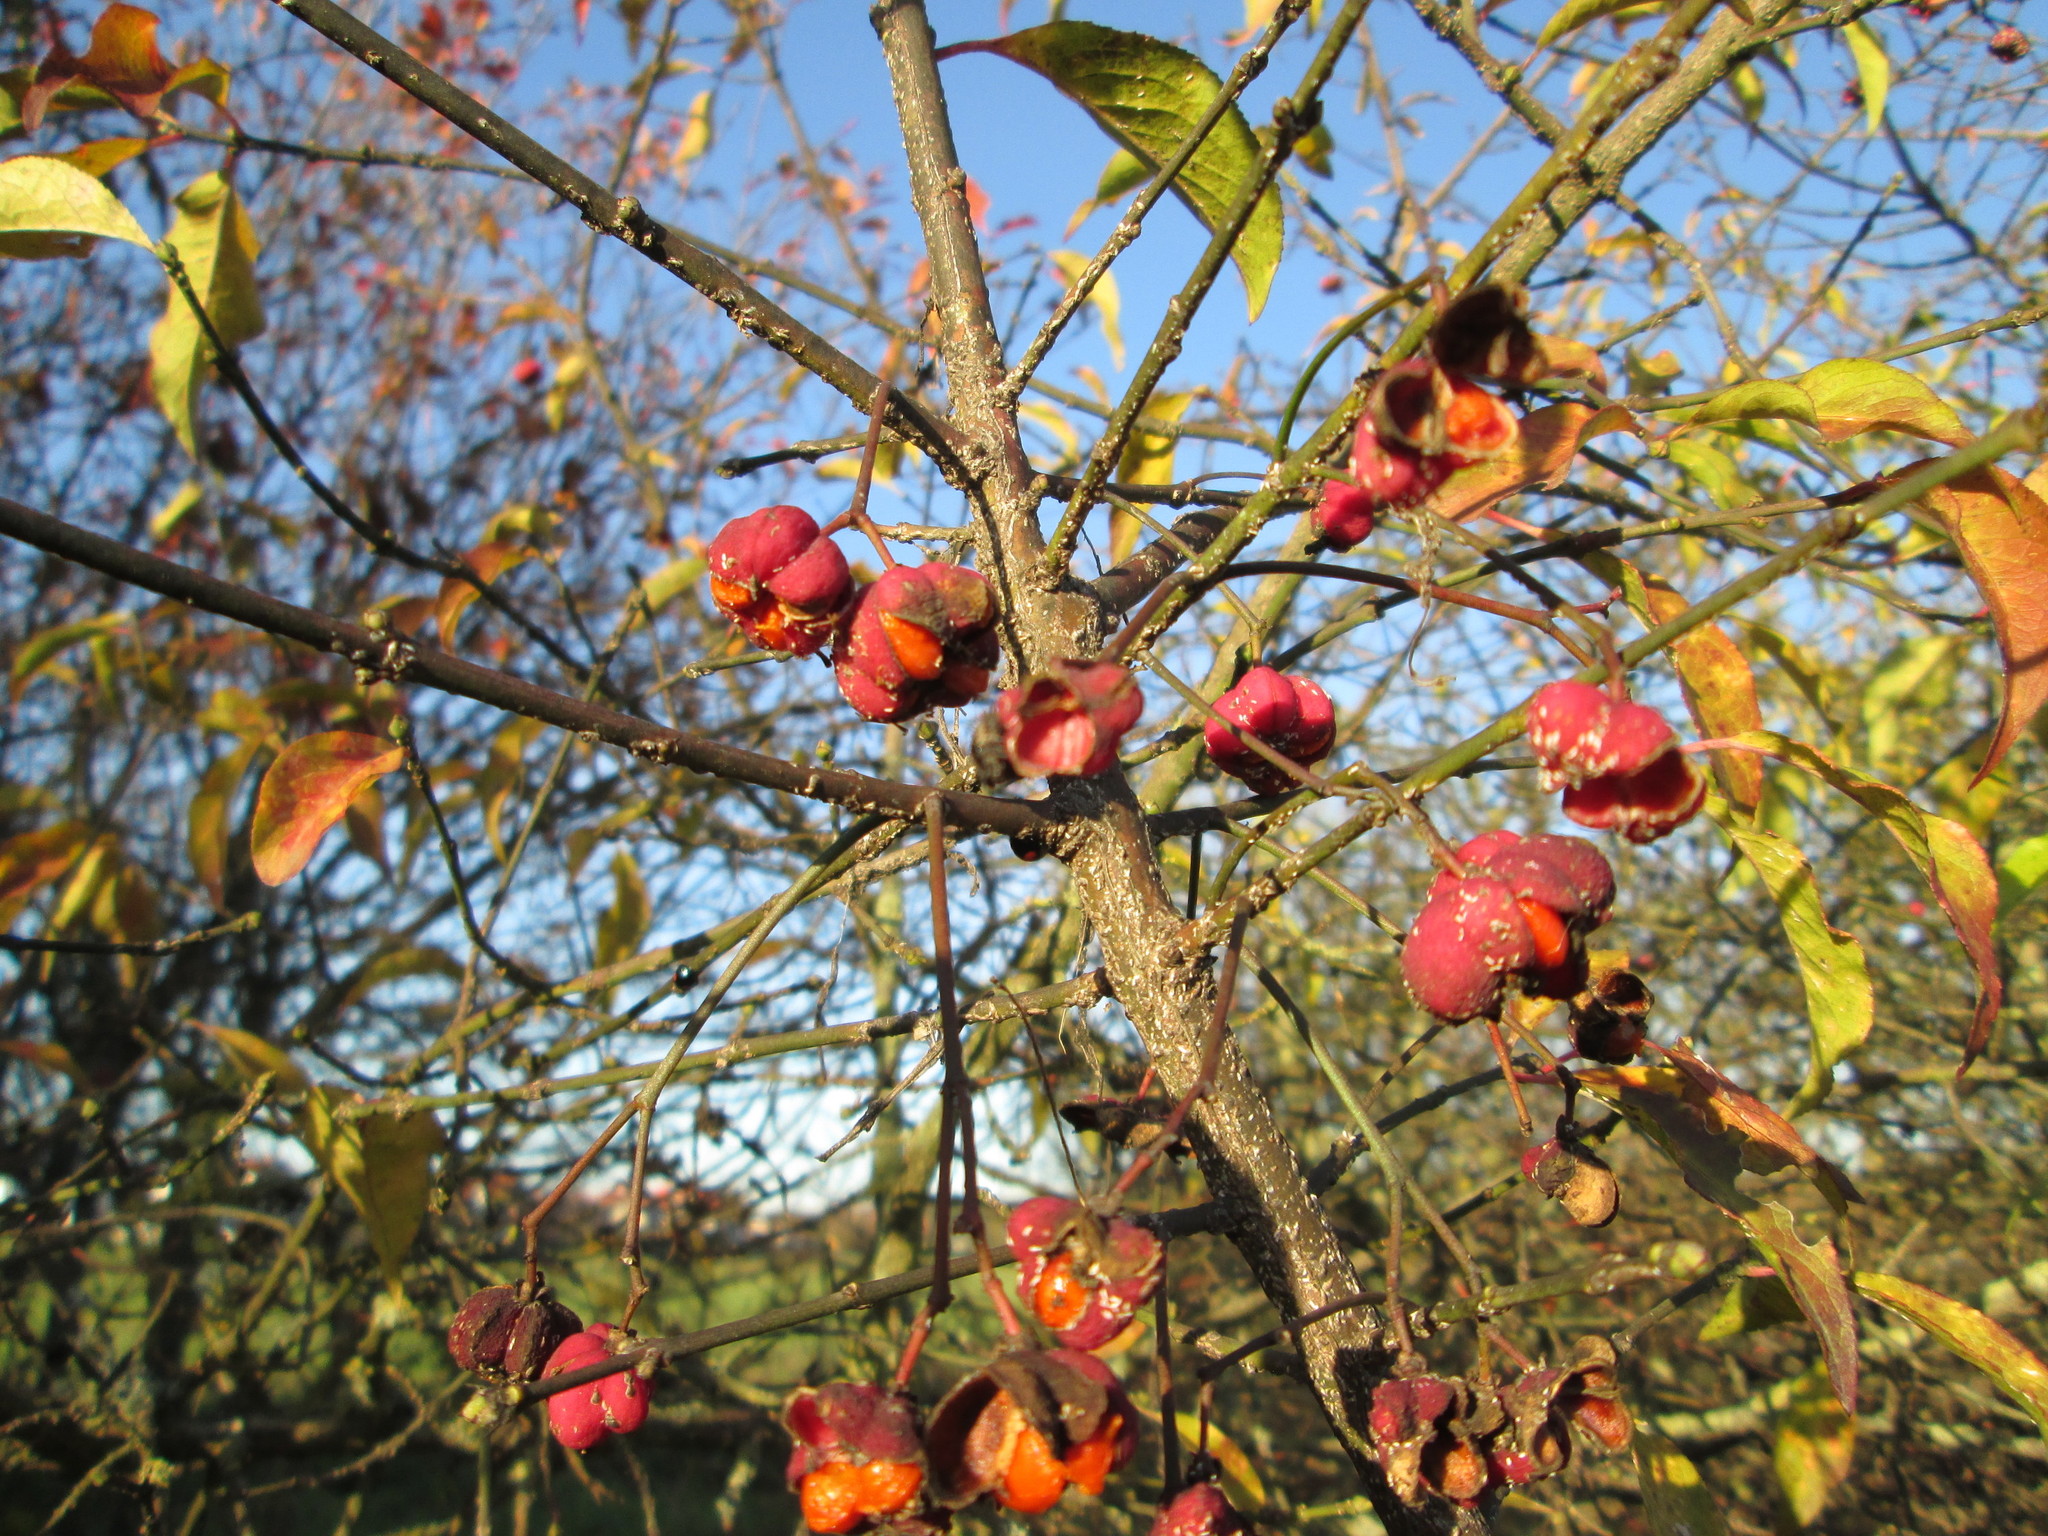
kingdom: Plantae
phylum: Tracheophyta
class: Magnoliopsida
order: Celastrales
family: Celastraceae
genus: Euonymus
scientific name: Euonymus europaeus
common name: Spindle
